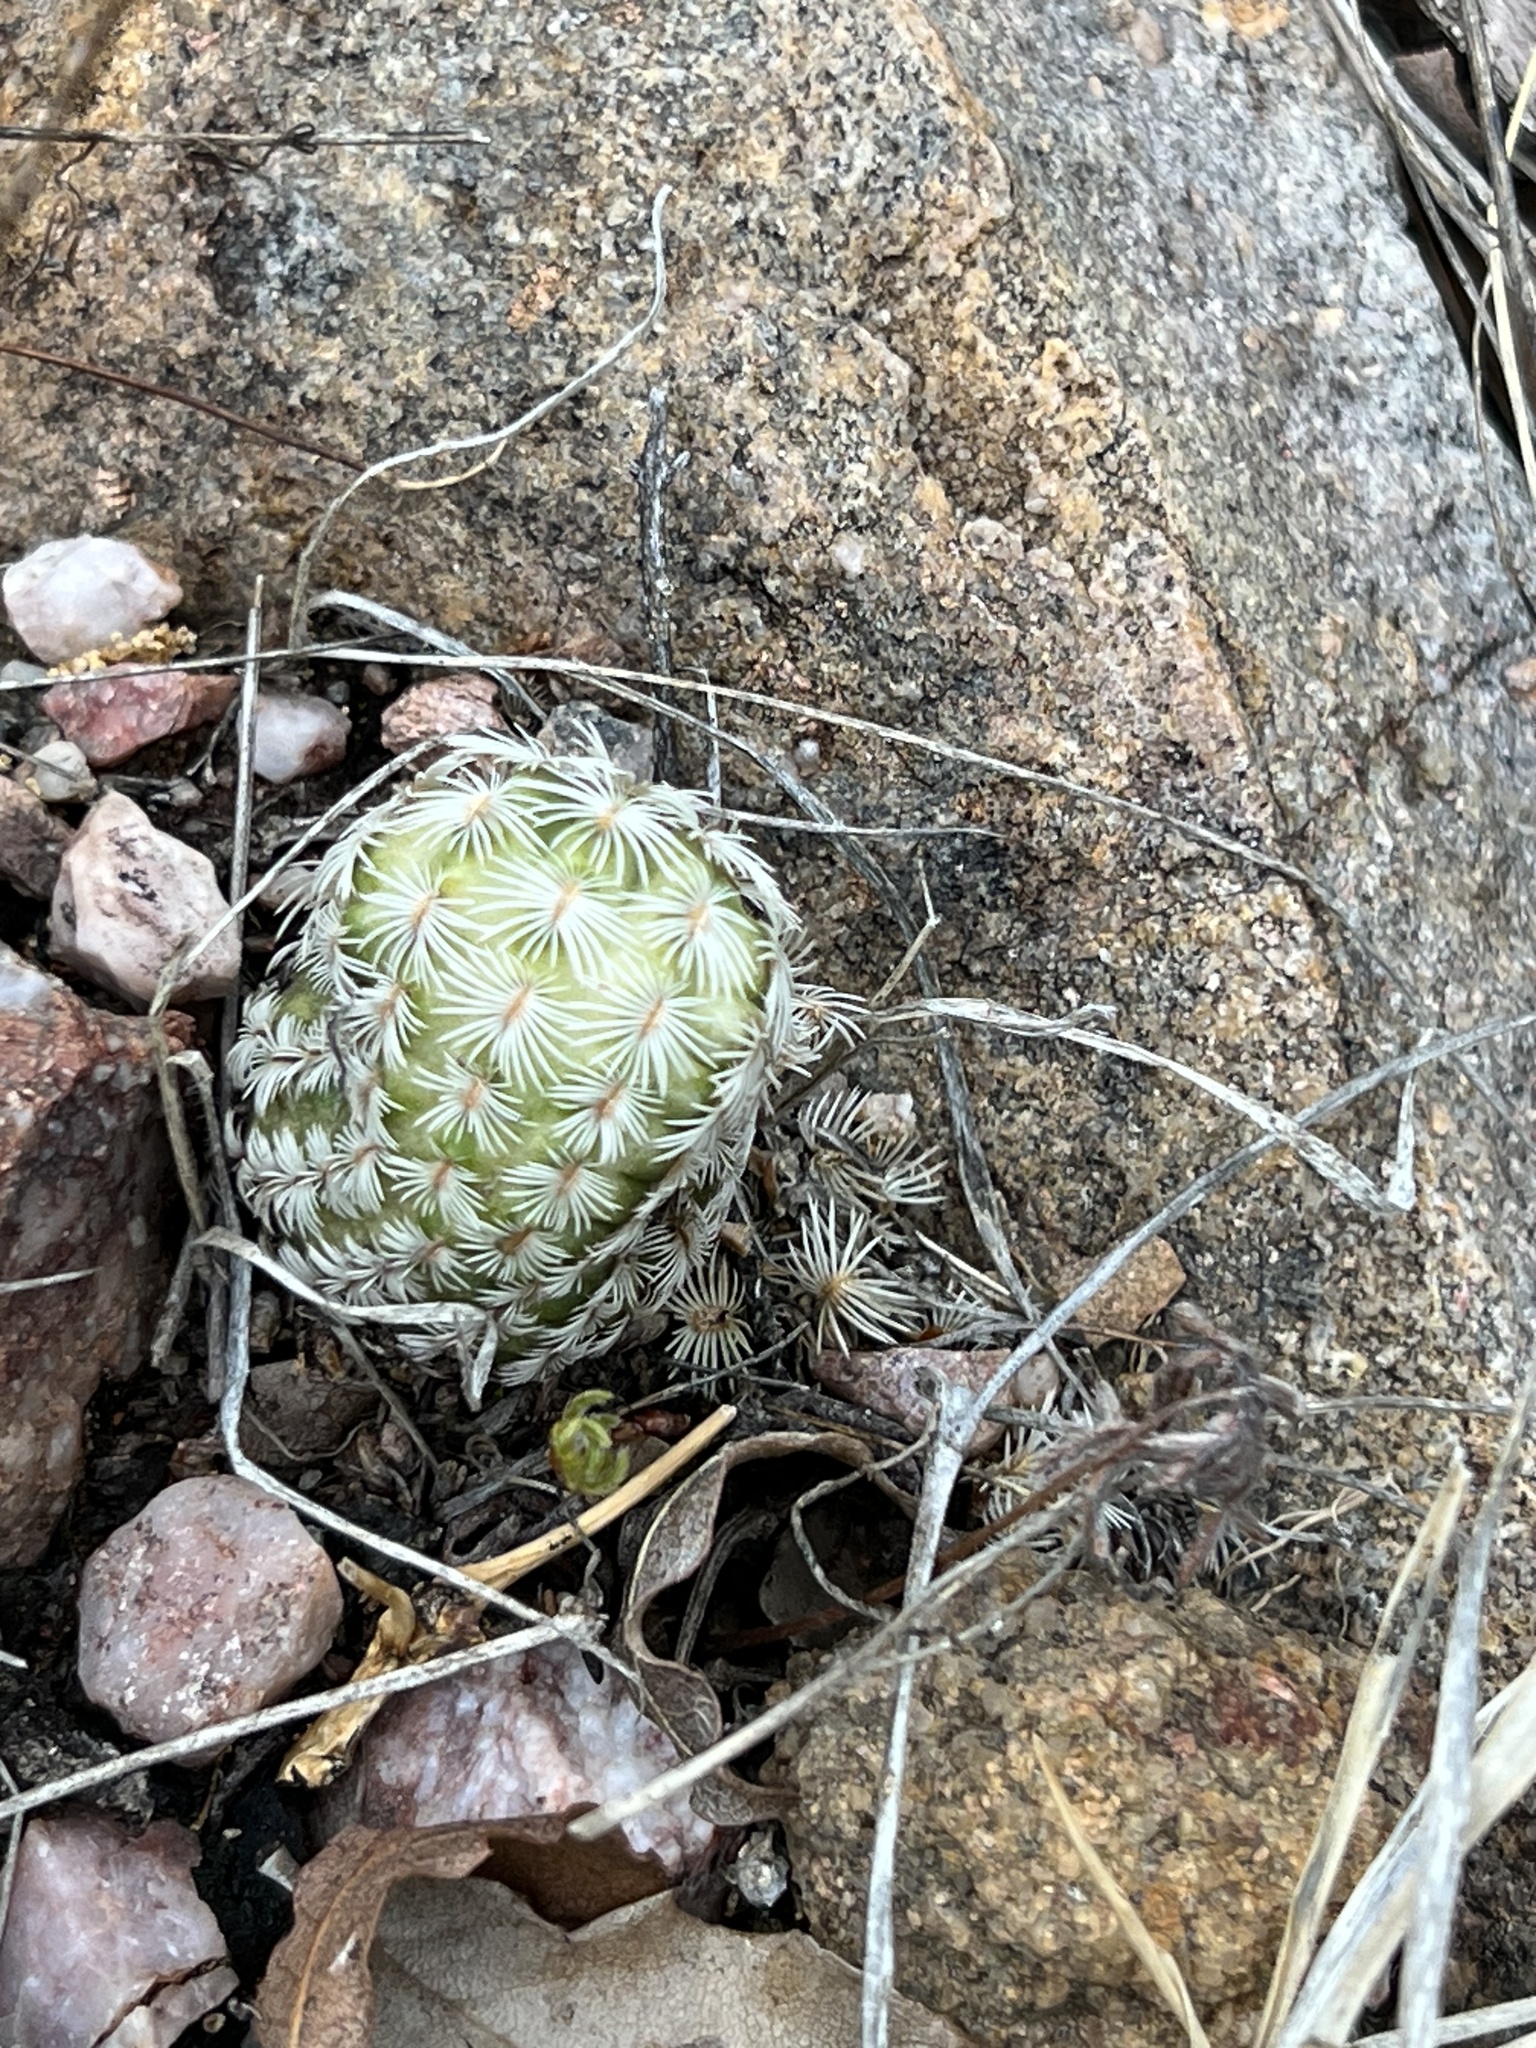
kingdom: Plantae
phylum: Tracheophyta
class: Magnoliopsida
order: Caryophyllales
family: Cactaceae
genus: Echinocereus
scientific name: Echinocereus rigidissimus
